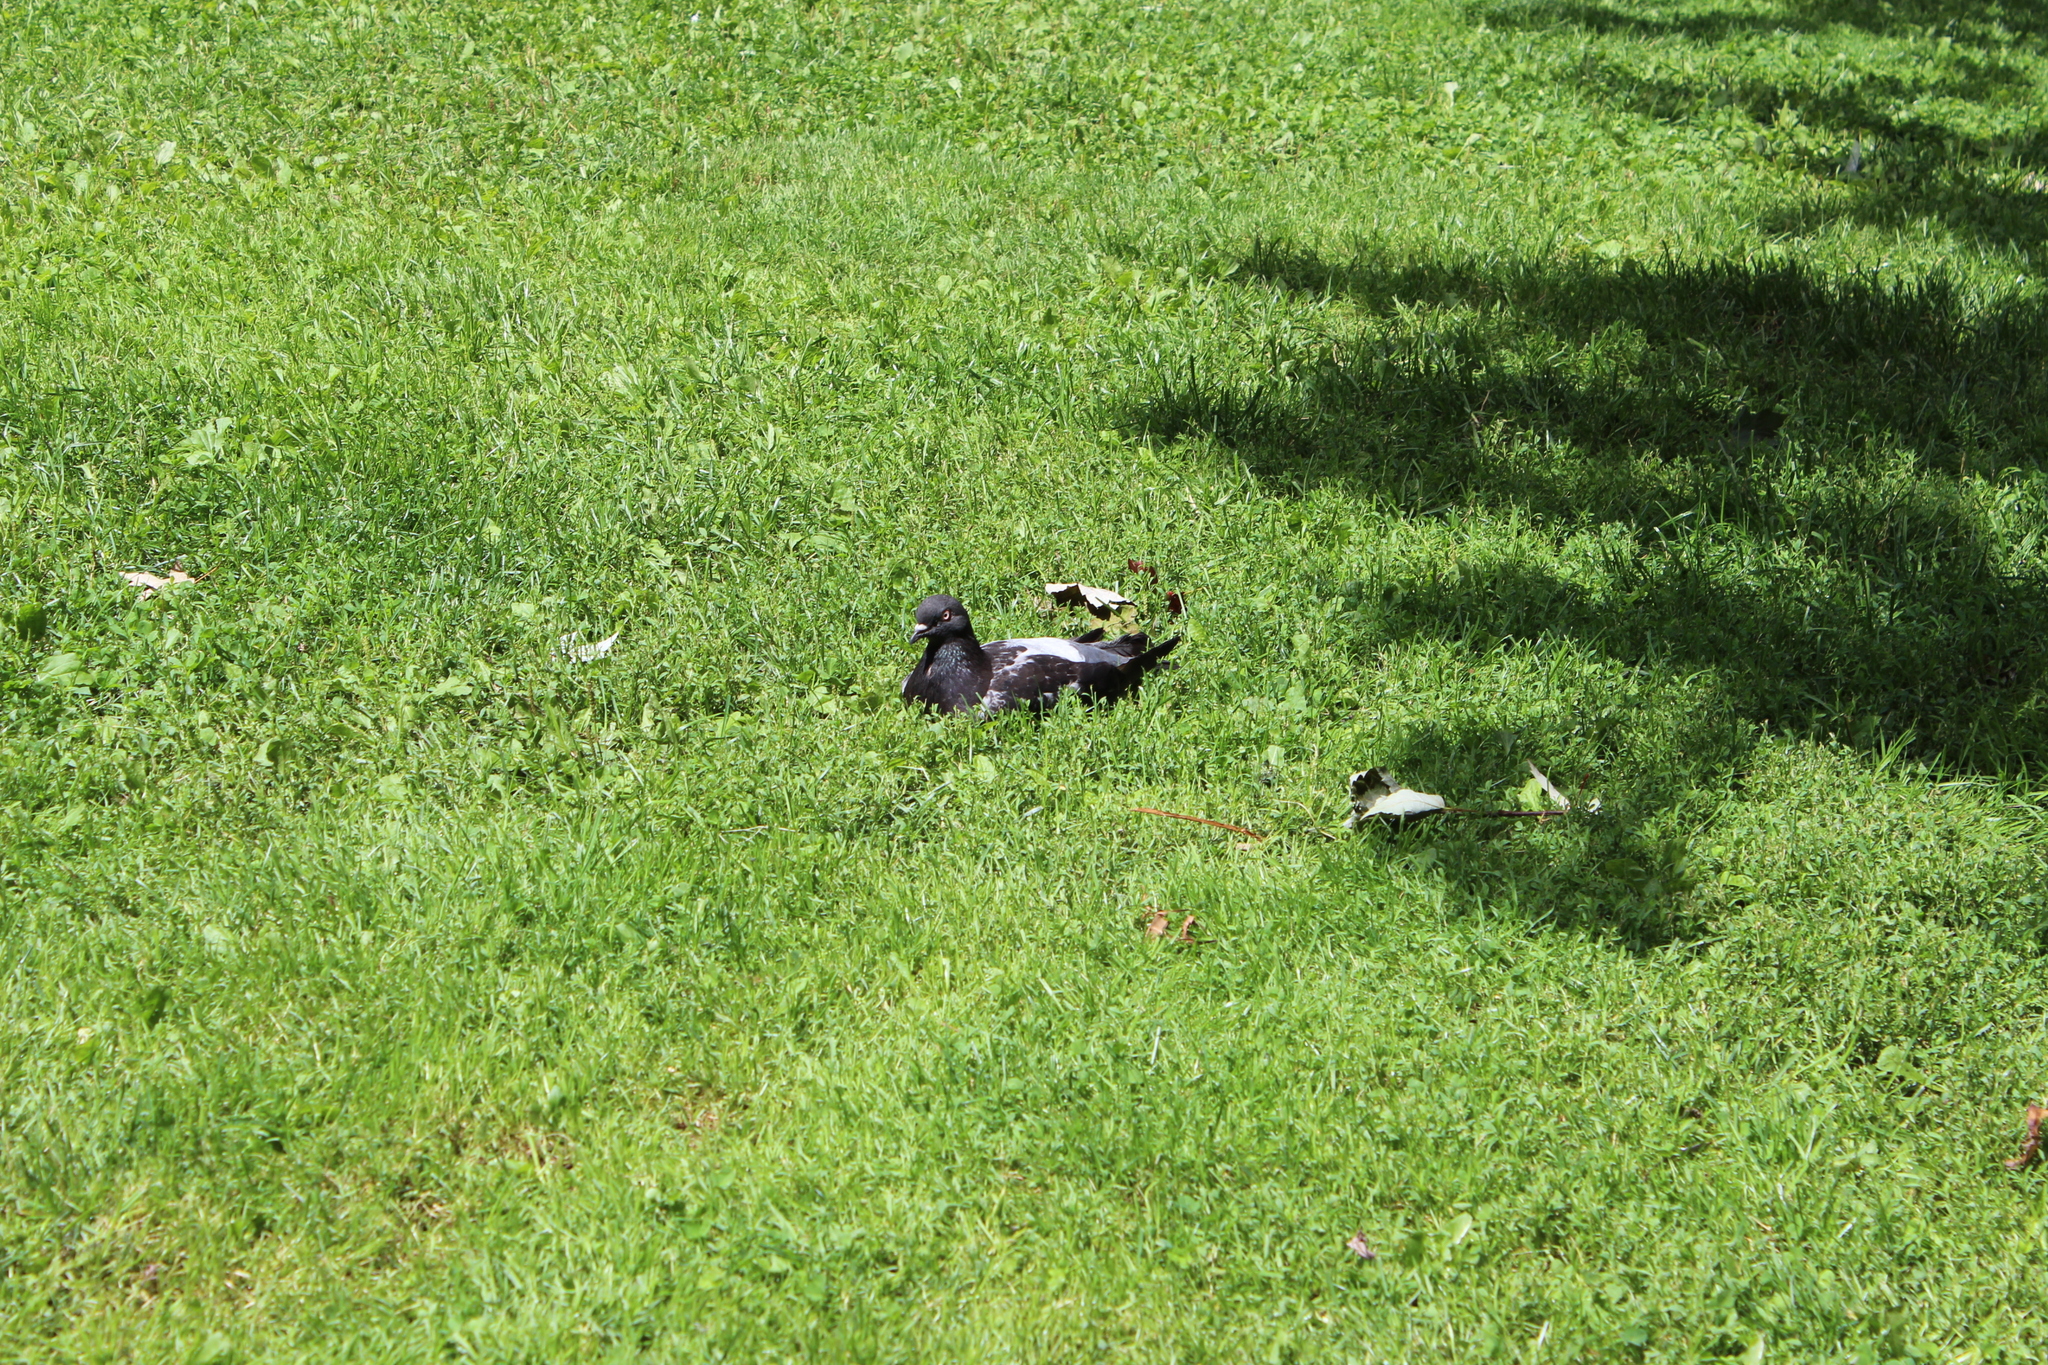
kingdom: Animalia
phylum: Chordata
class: Aves
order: Columbiformes
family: Columbidae
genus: Columba
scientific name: Columba livia
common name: Rock pigeon
